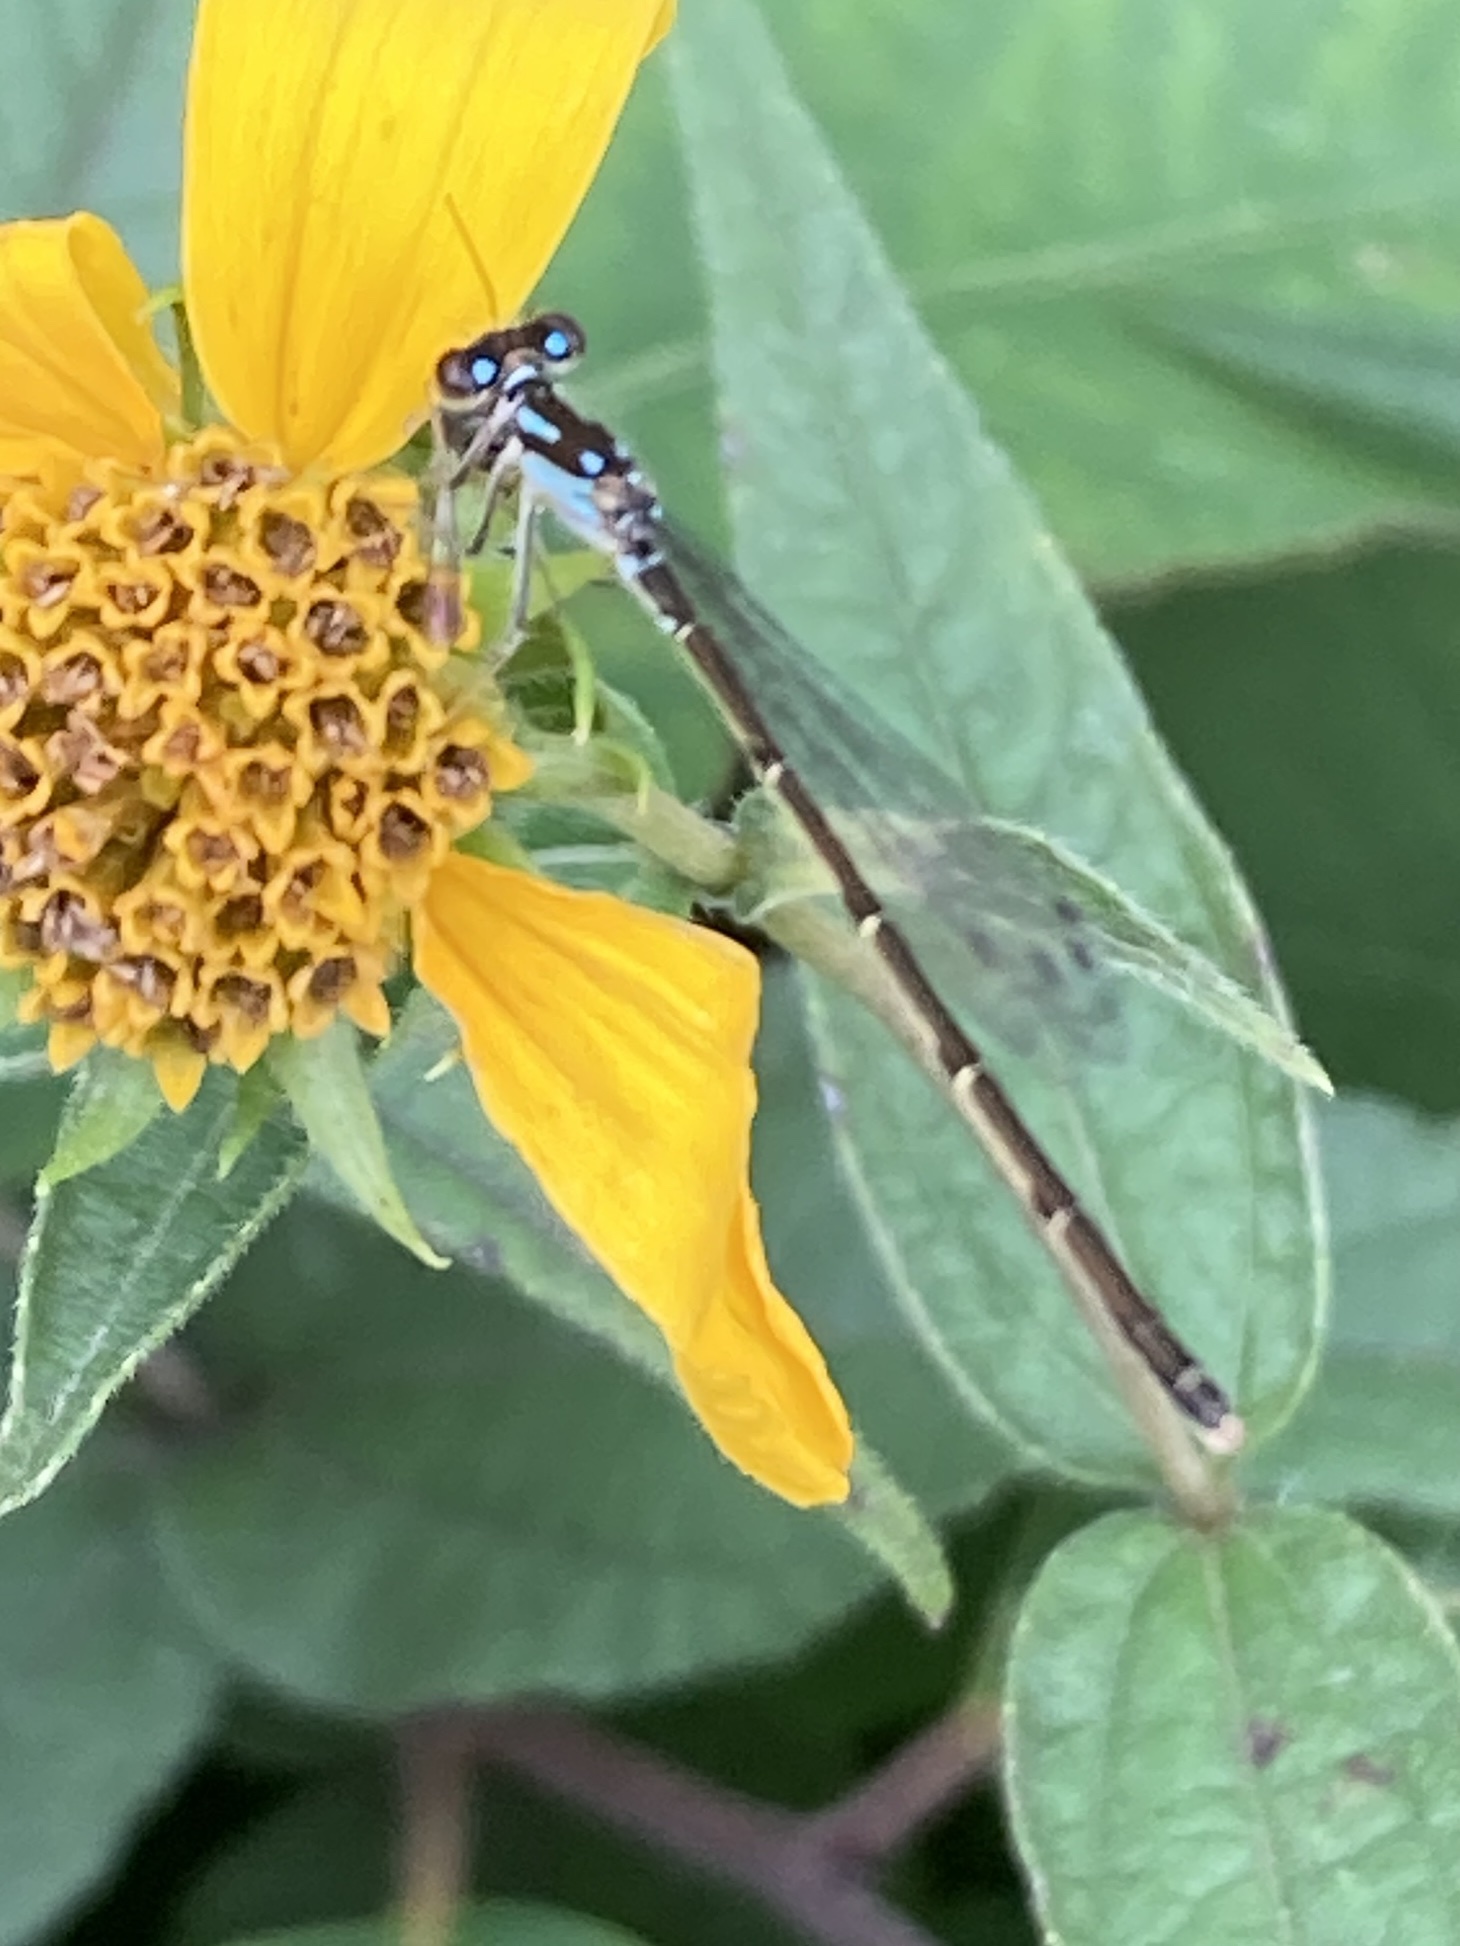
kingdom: Animalia
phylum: Arthropoda
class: Insecta
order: Odonata
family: Coenagrionidae
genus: Ischnura
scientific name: Ischnura posita
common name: Fragile forktail
